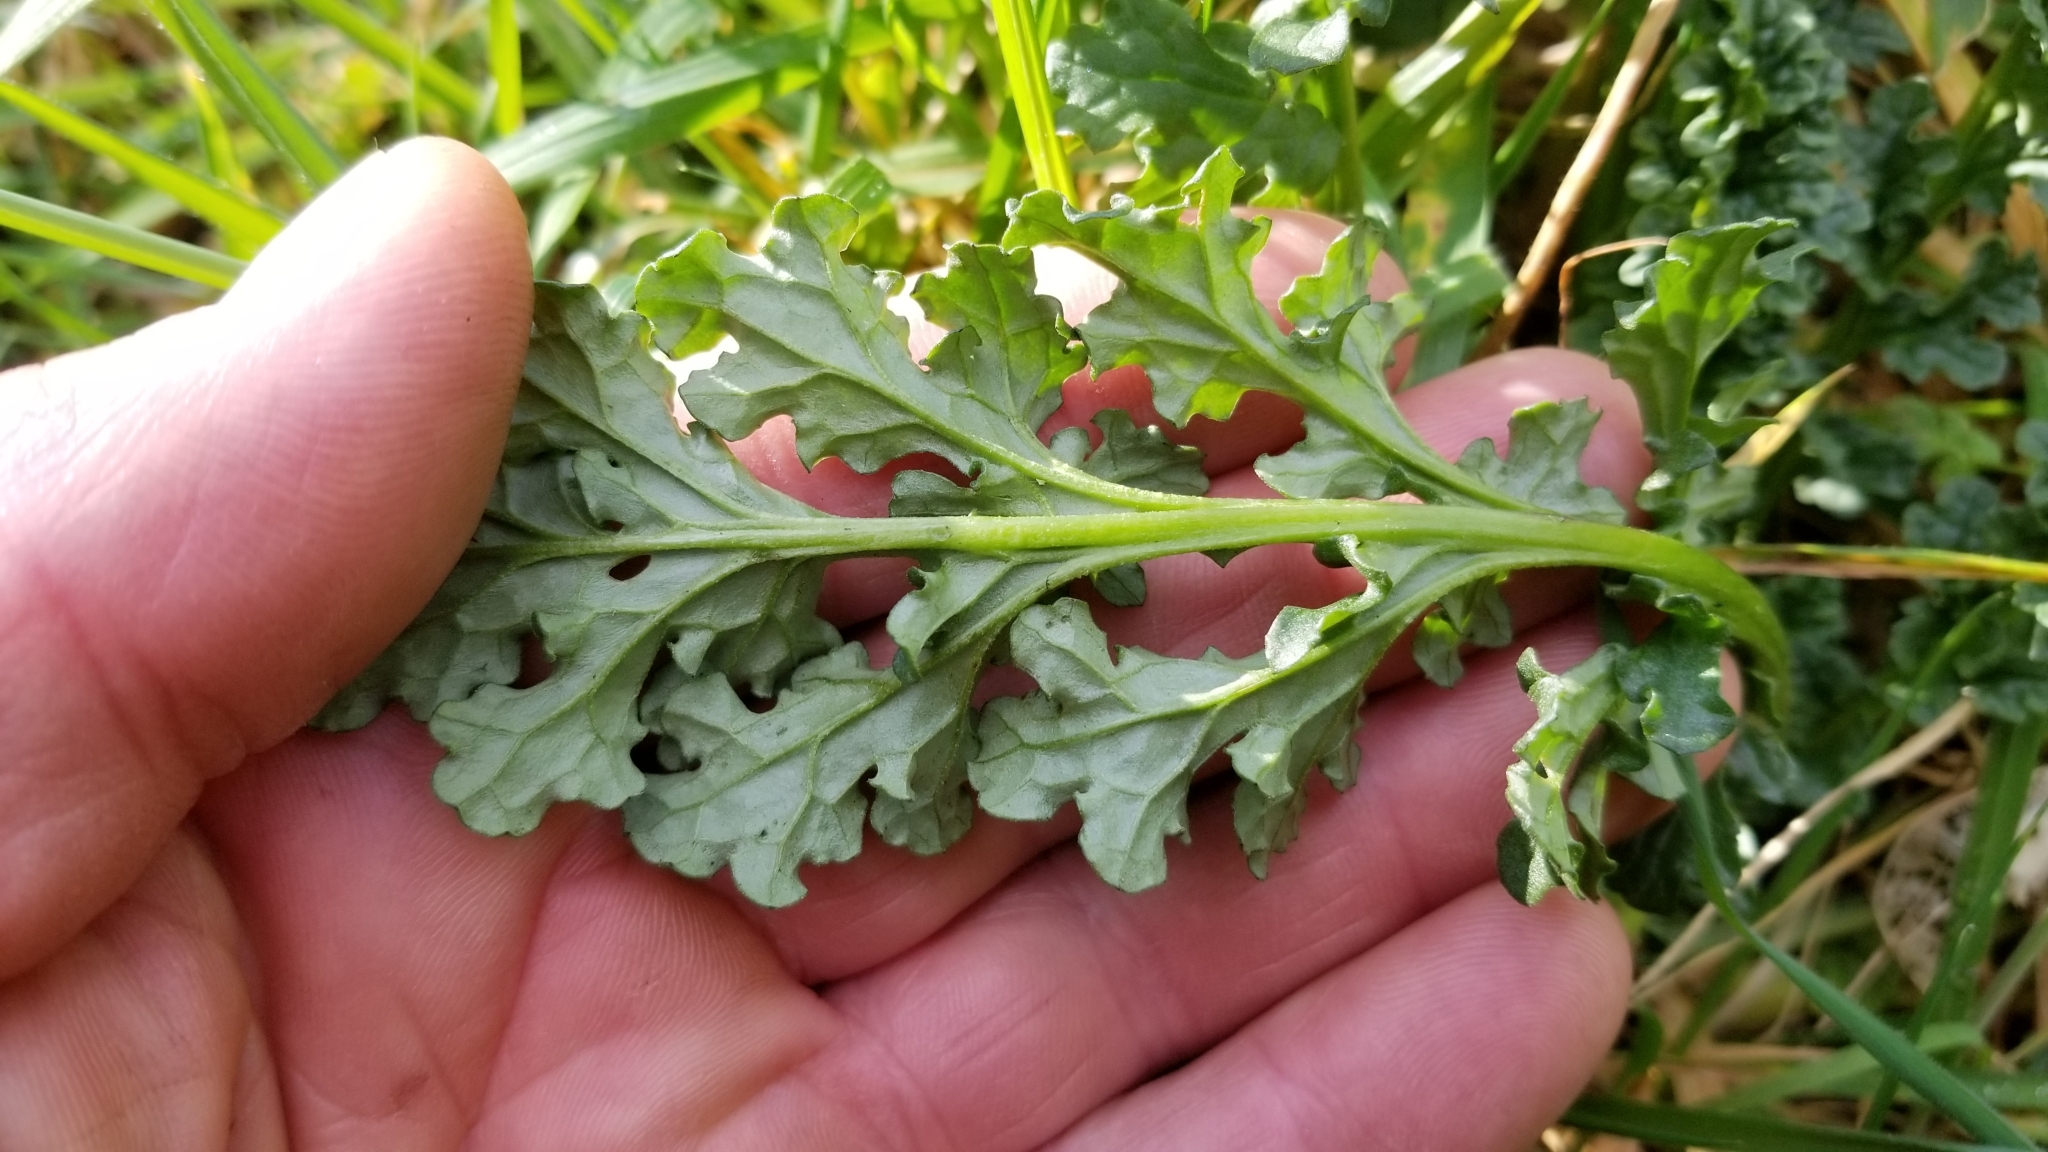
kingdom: Plantae
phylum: Tracheophyta
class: Magnoliopsida
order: Asterales
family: Asteraceae
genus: Jacobaea
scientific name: Jacobaea vulgaris
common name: Stinking willie
